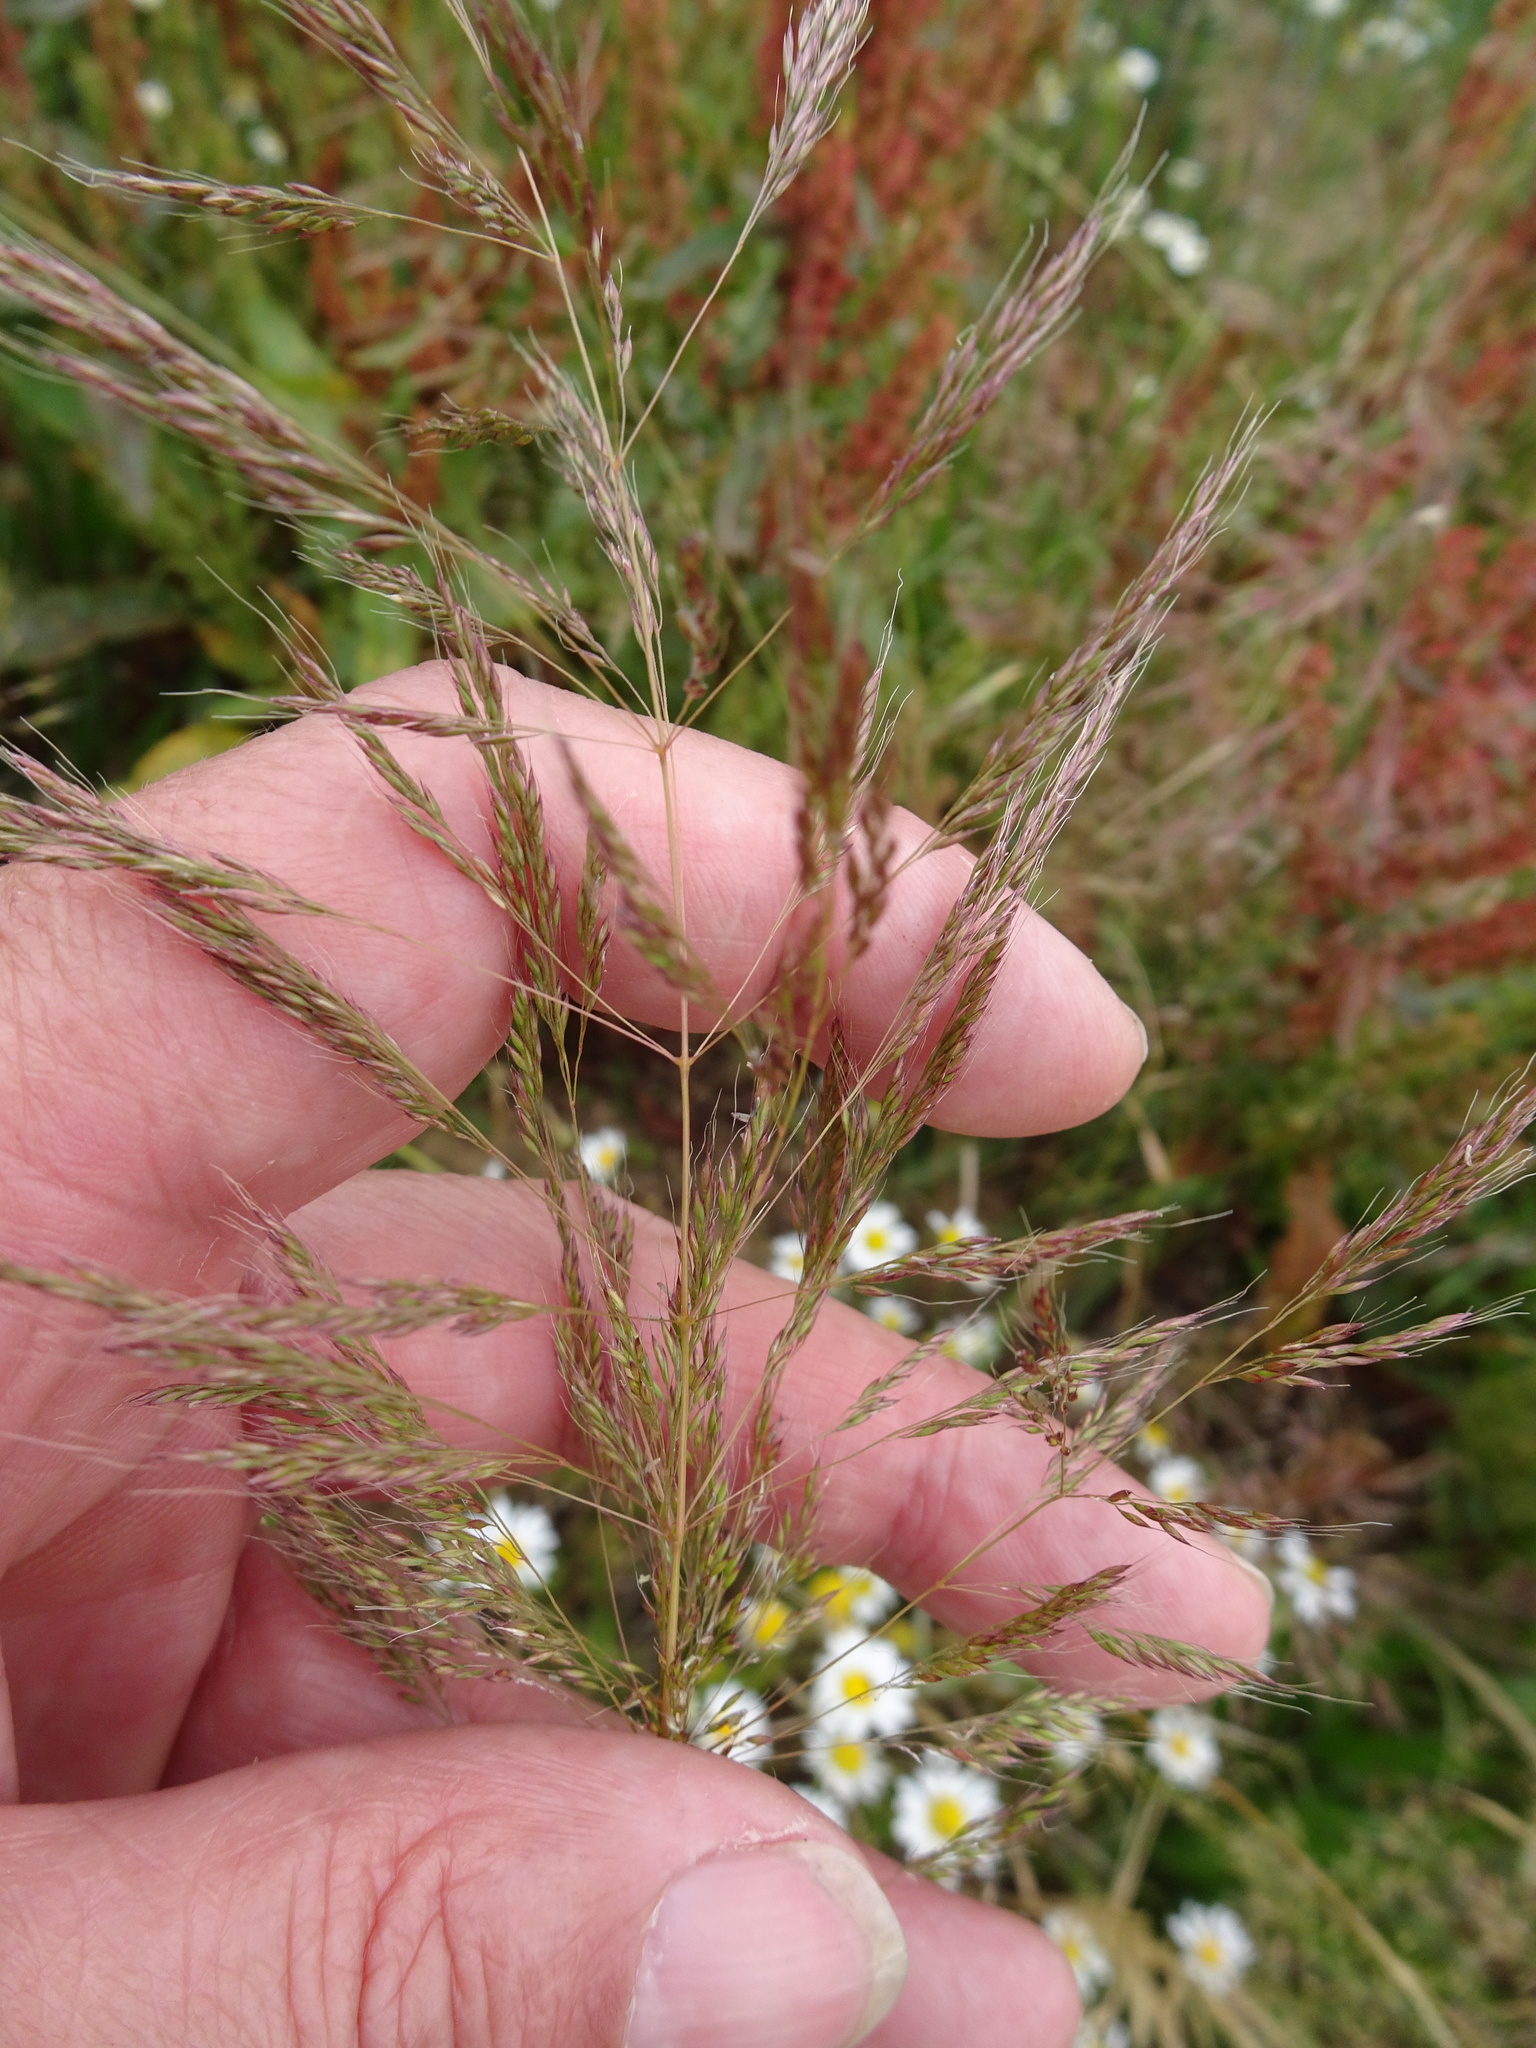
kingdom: Plantae
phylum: Tracheophyta
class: Liliopsida
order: Poales
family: Poaceae
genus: Apera
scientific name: Apera spica-venti
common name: Loose silky-bent
